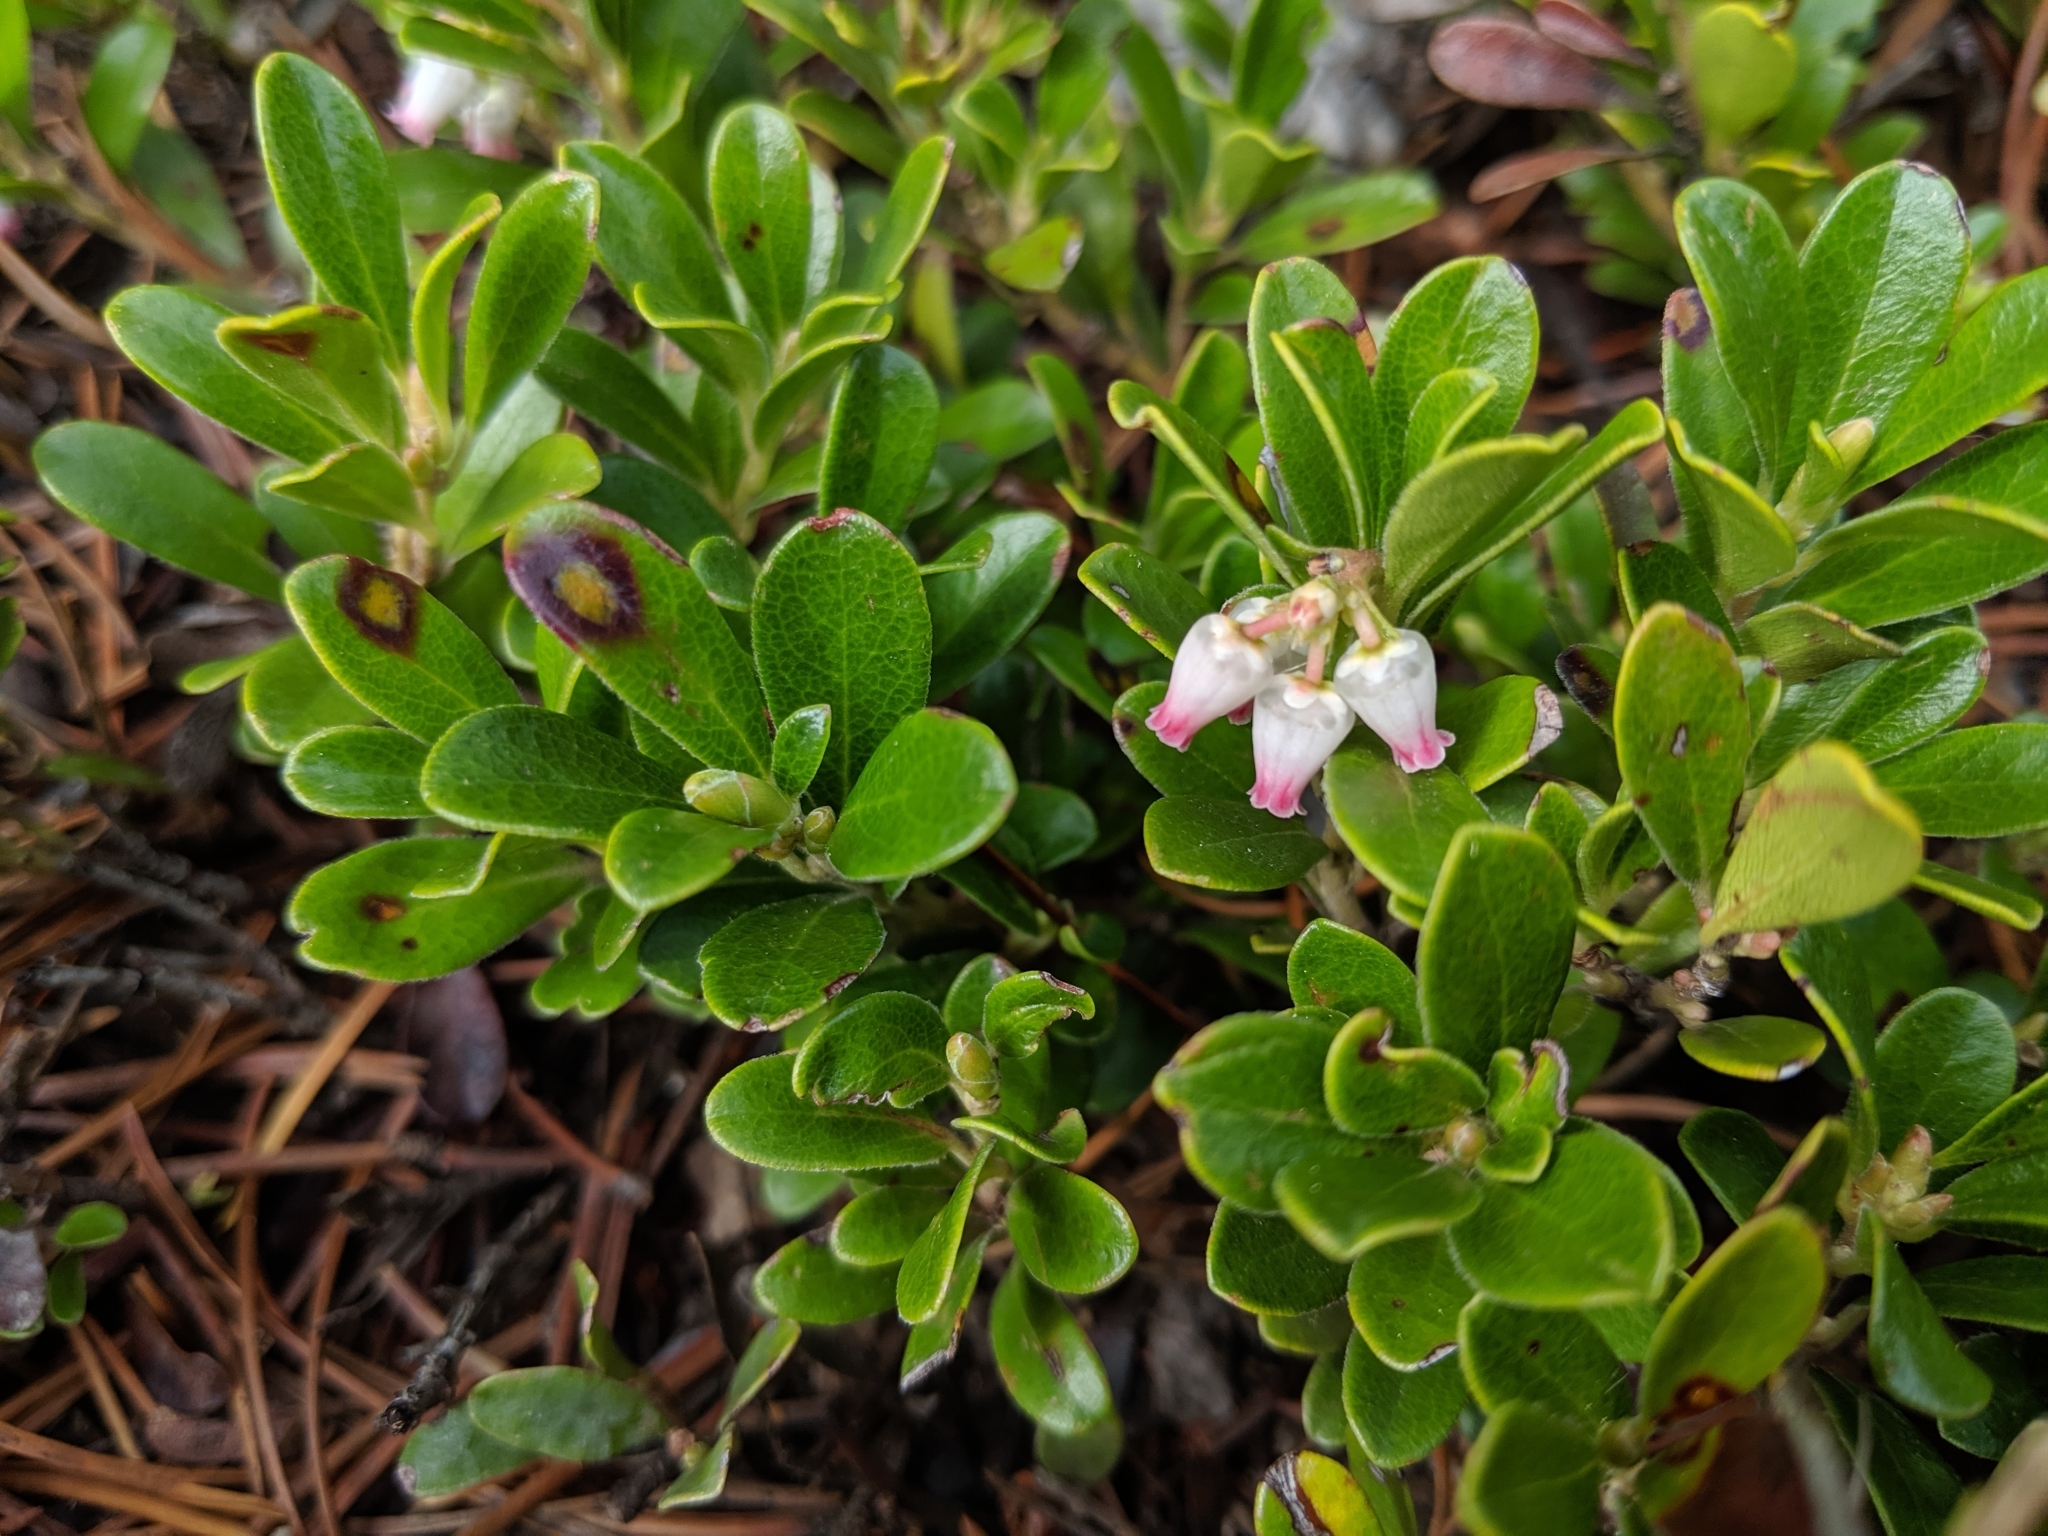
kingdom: Plantae
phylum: Tracheophyta
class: Magnoliopsida
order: Ericales
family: Ericaceae
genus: Arctostaphylos
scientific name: Arctostaphylos uva-ursi
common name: Bearberry
